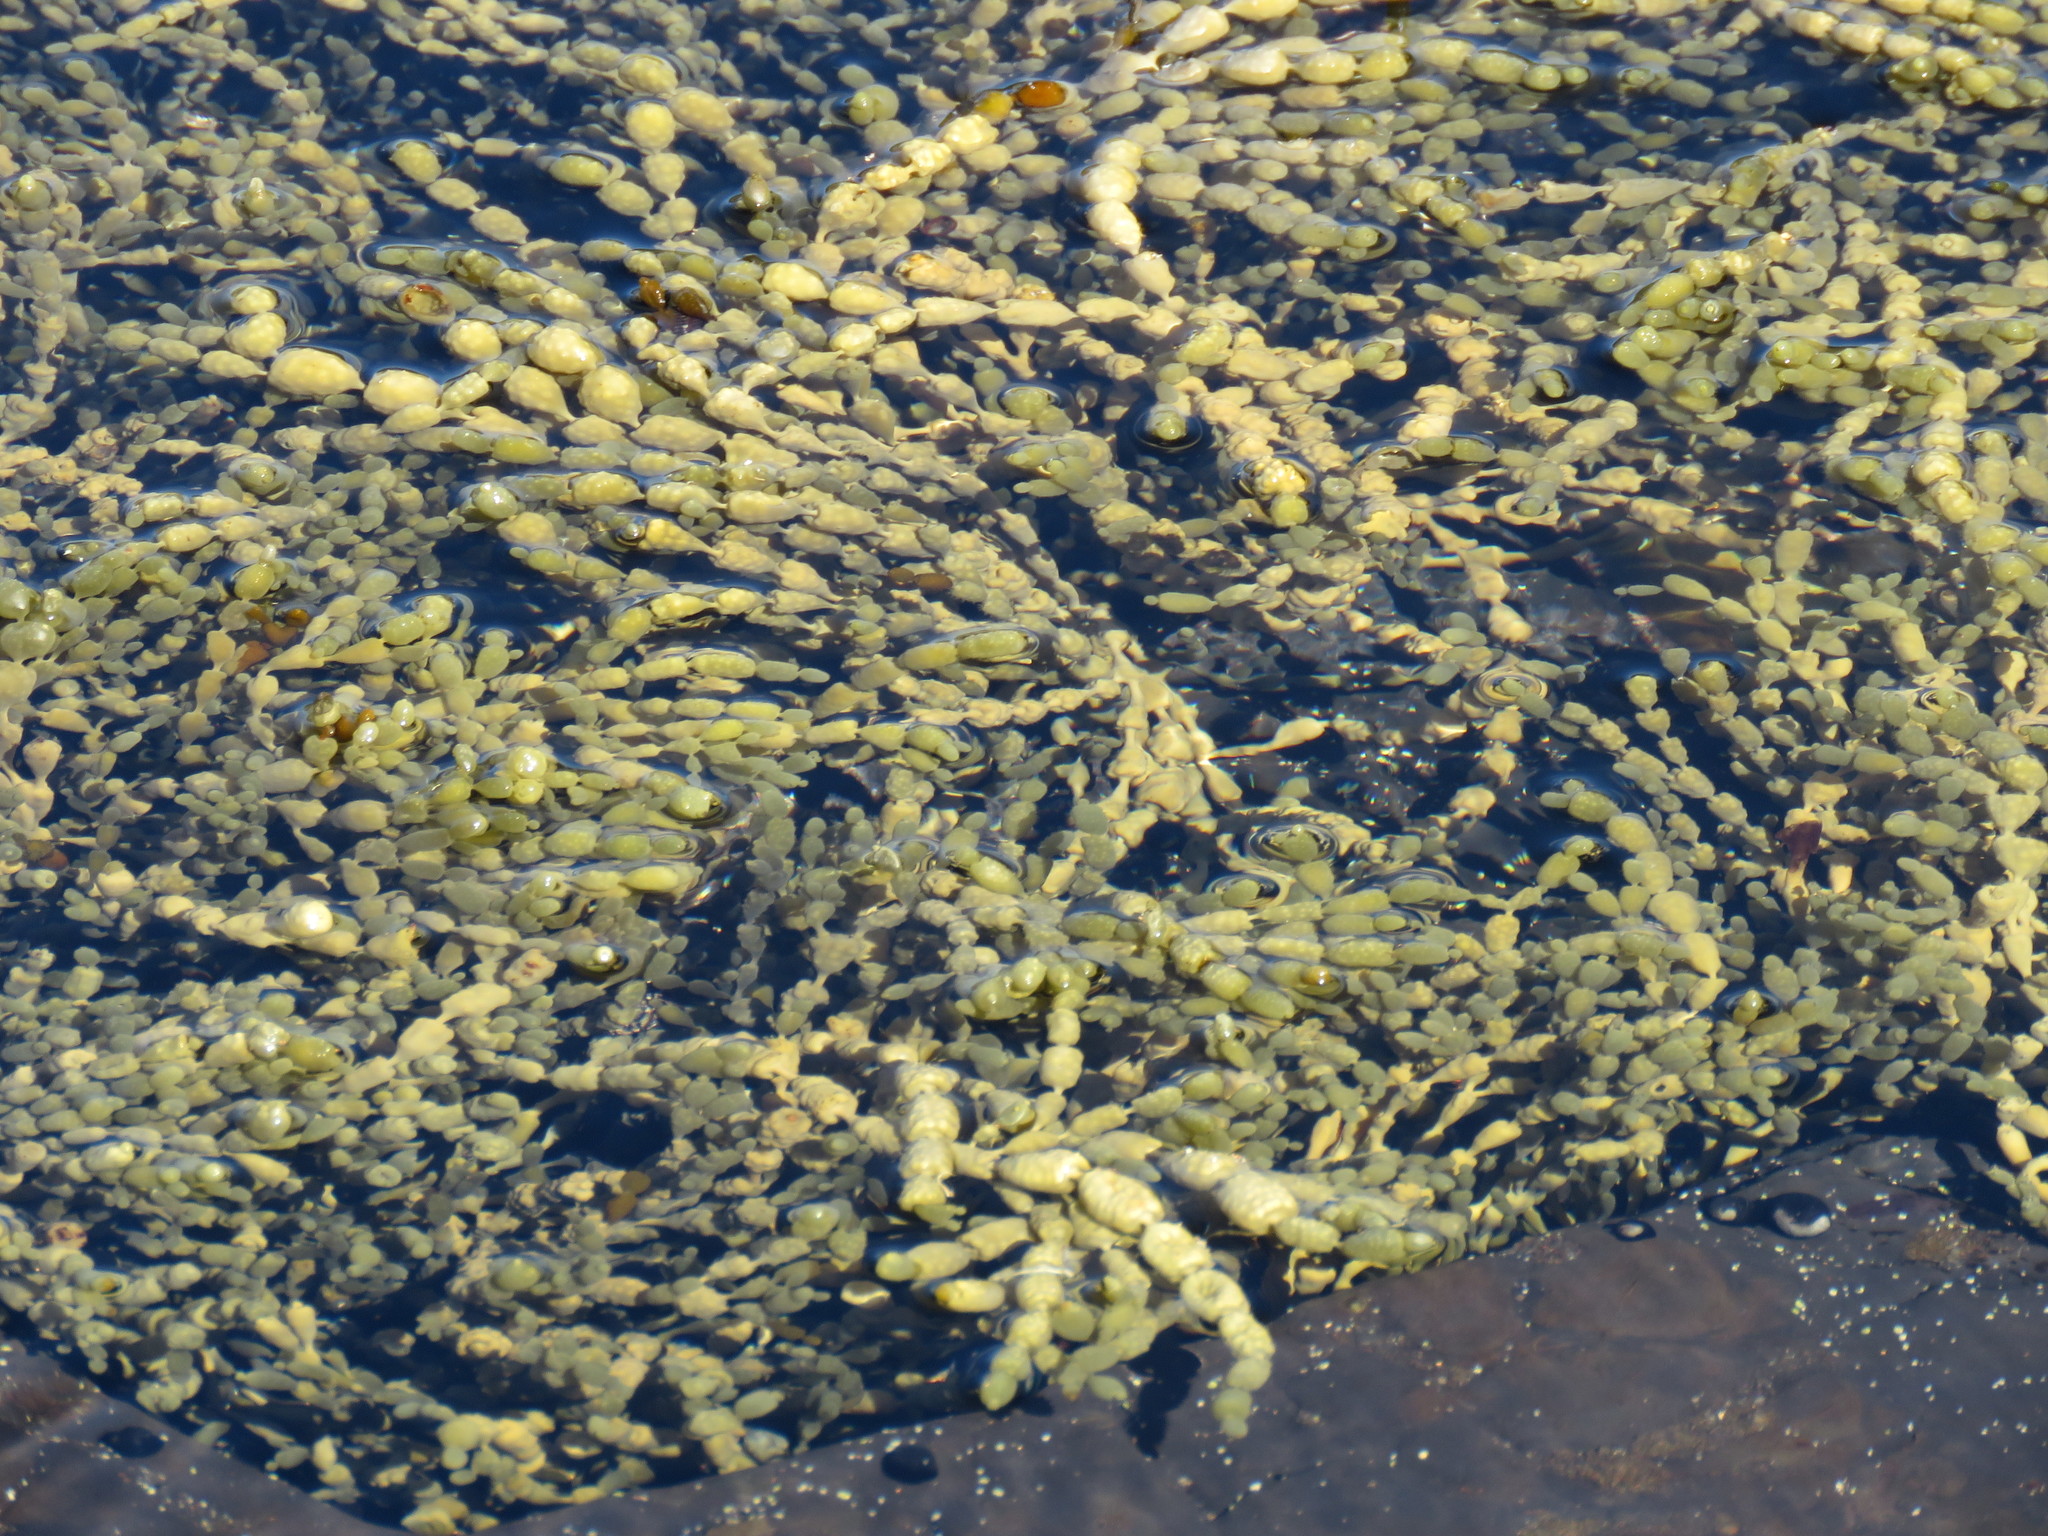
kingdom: Chromista
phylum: Ochrophyta
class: Phaeophyceae
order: Fucales
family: Hormosiraceae
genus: Hormosira
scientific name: Hormosira banksii
